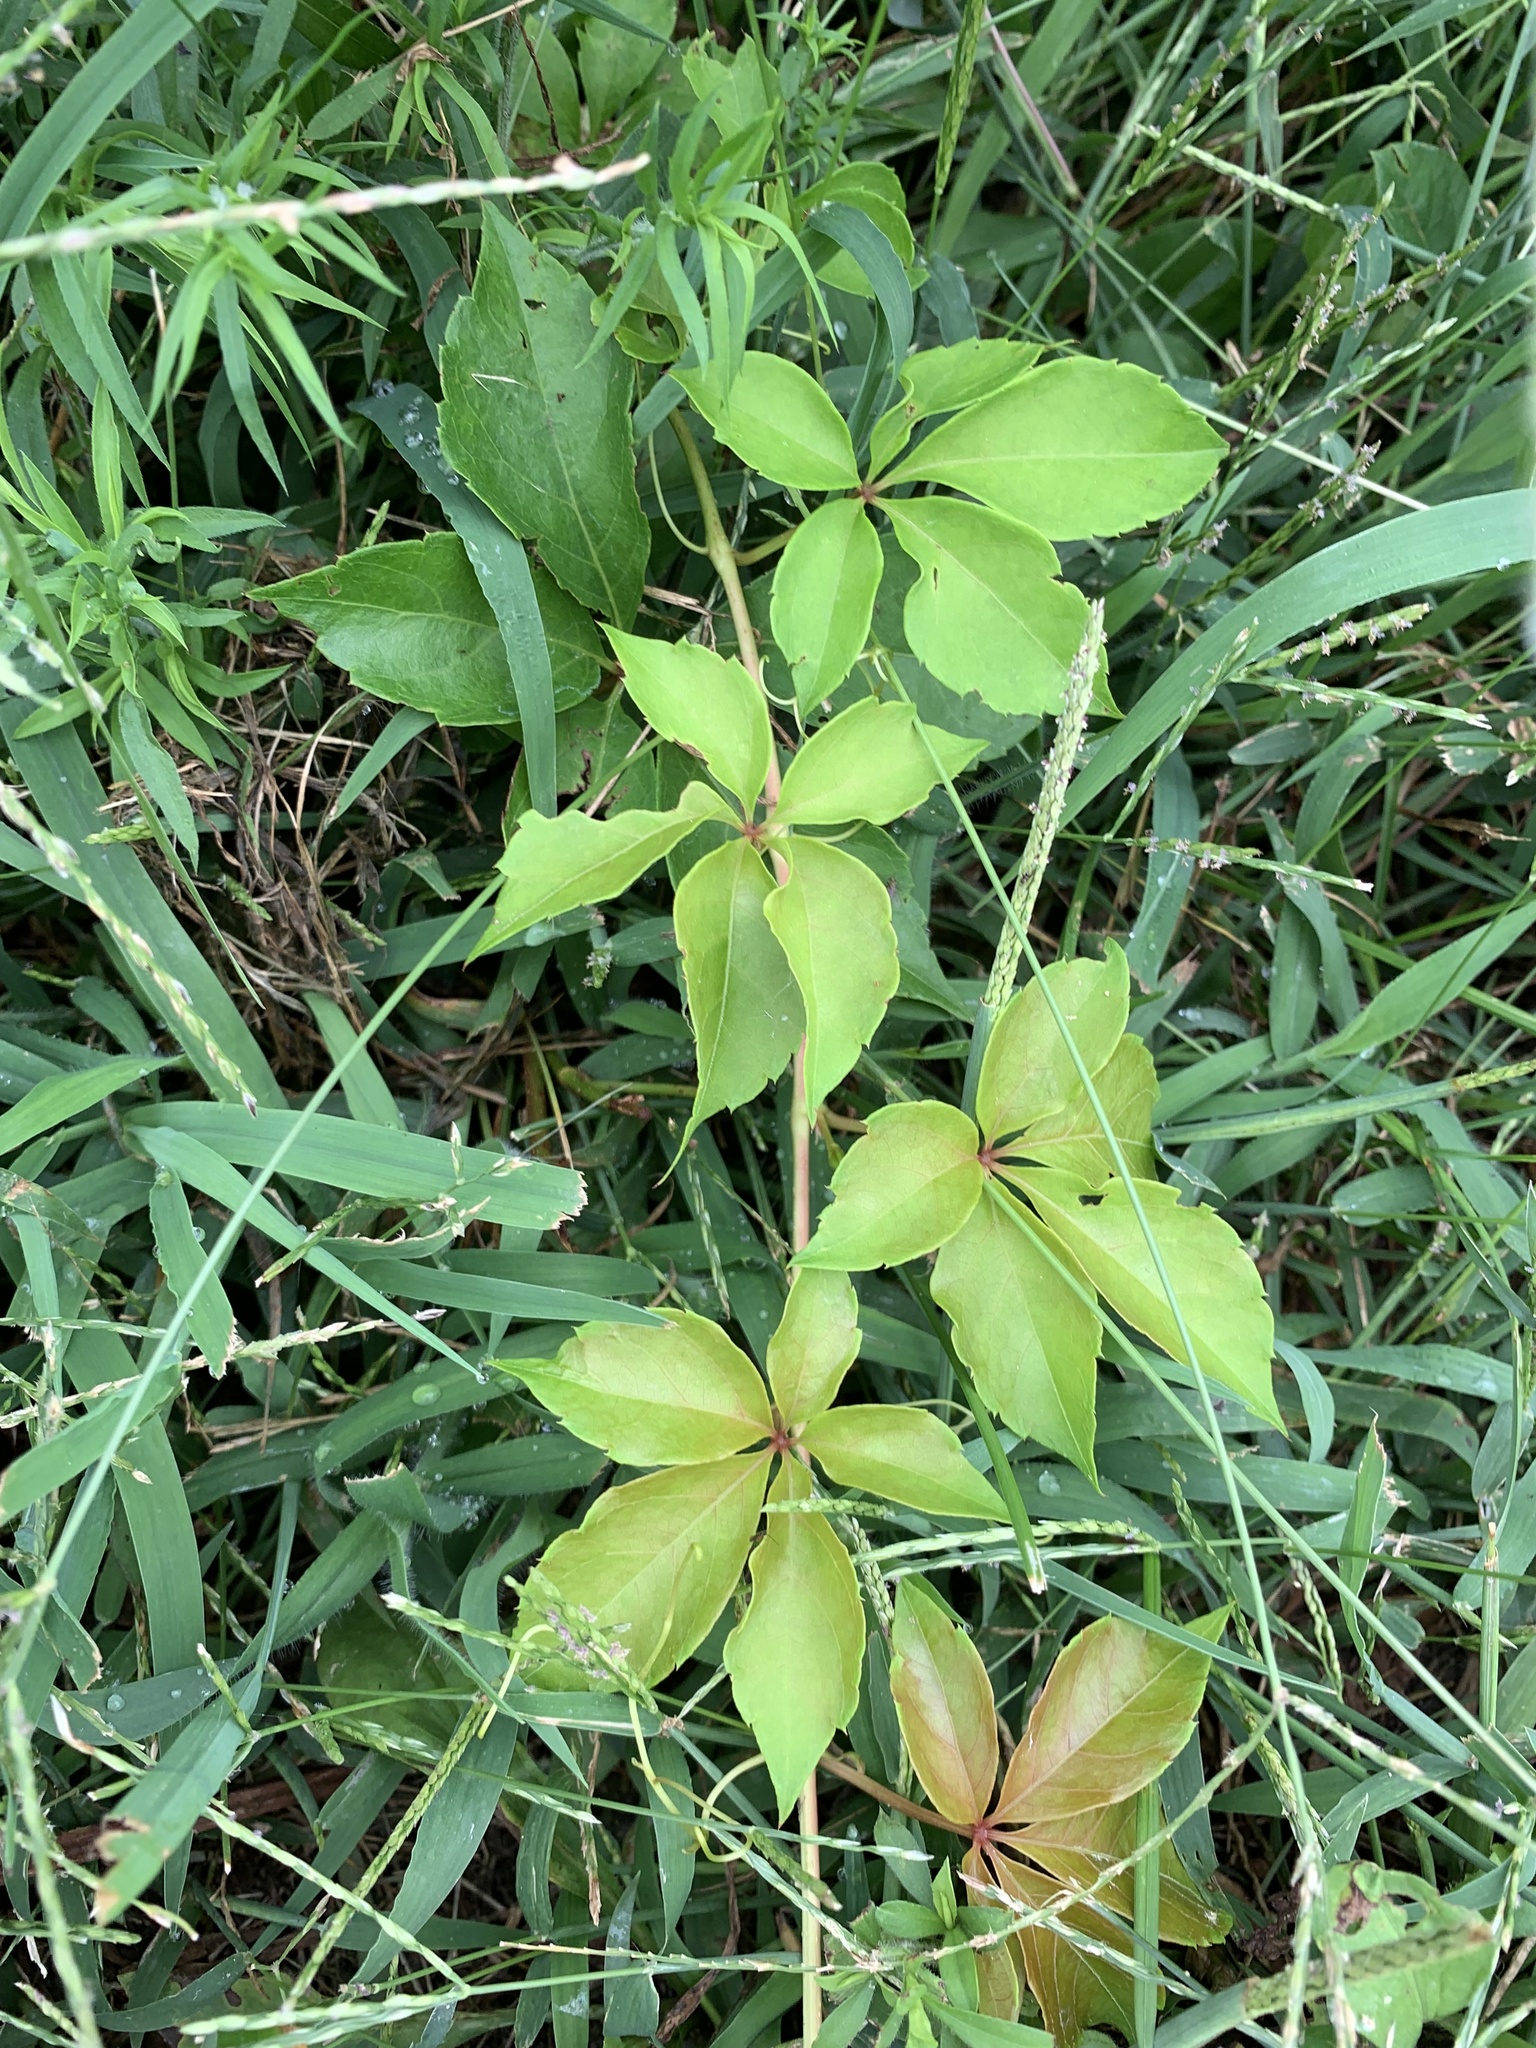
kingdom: Plantae
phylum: Tracheophyta
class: Magnoliopsida
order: Vitales
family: Vitaceae
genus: Parthenocissus
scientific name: Parthenocissus quinquefolia
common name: Virginia-creeper
